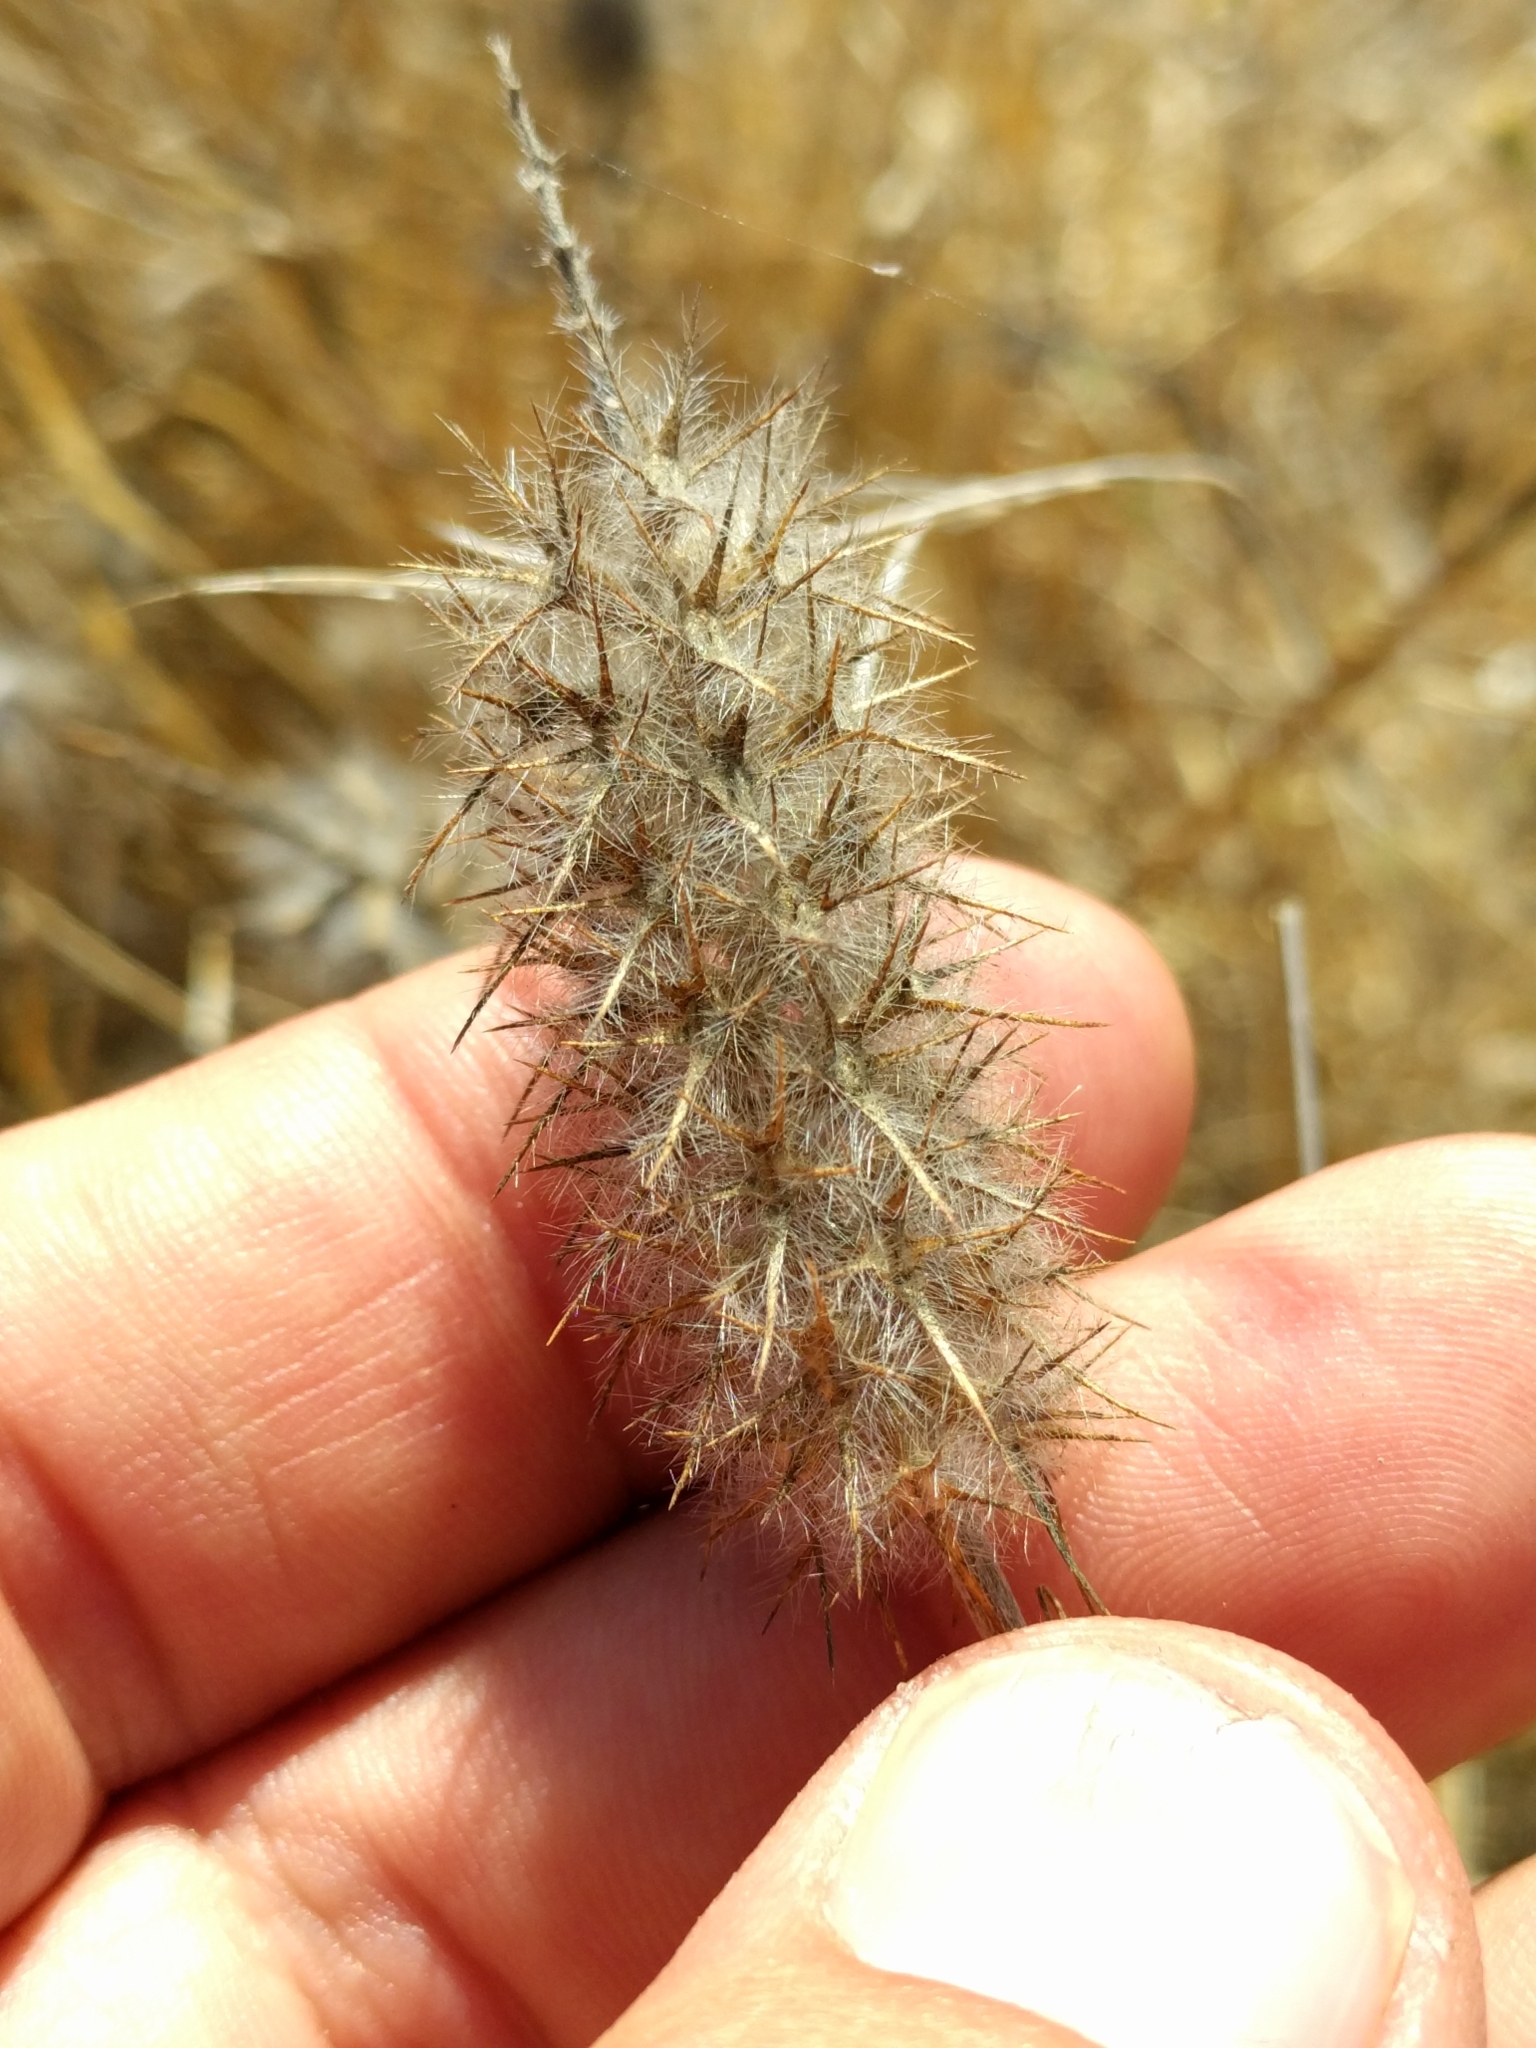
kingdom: Plantae
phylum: Tracheophyta
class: Magnoliopsida
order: Fabales
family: Fabaceae
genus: Trifolium
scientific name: Trifolium angustifolium
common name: Narrow clover
